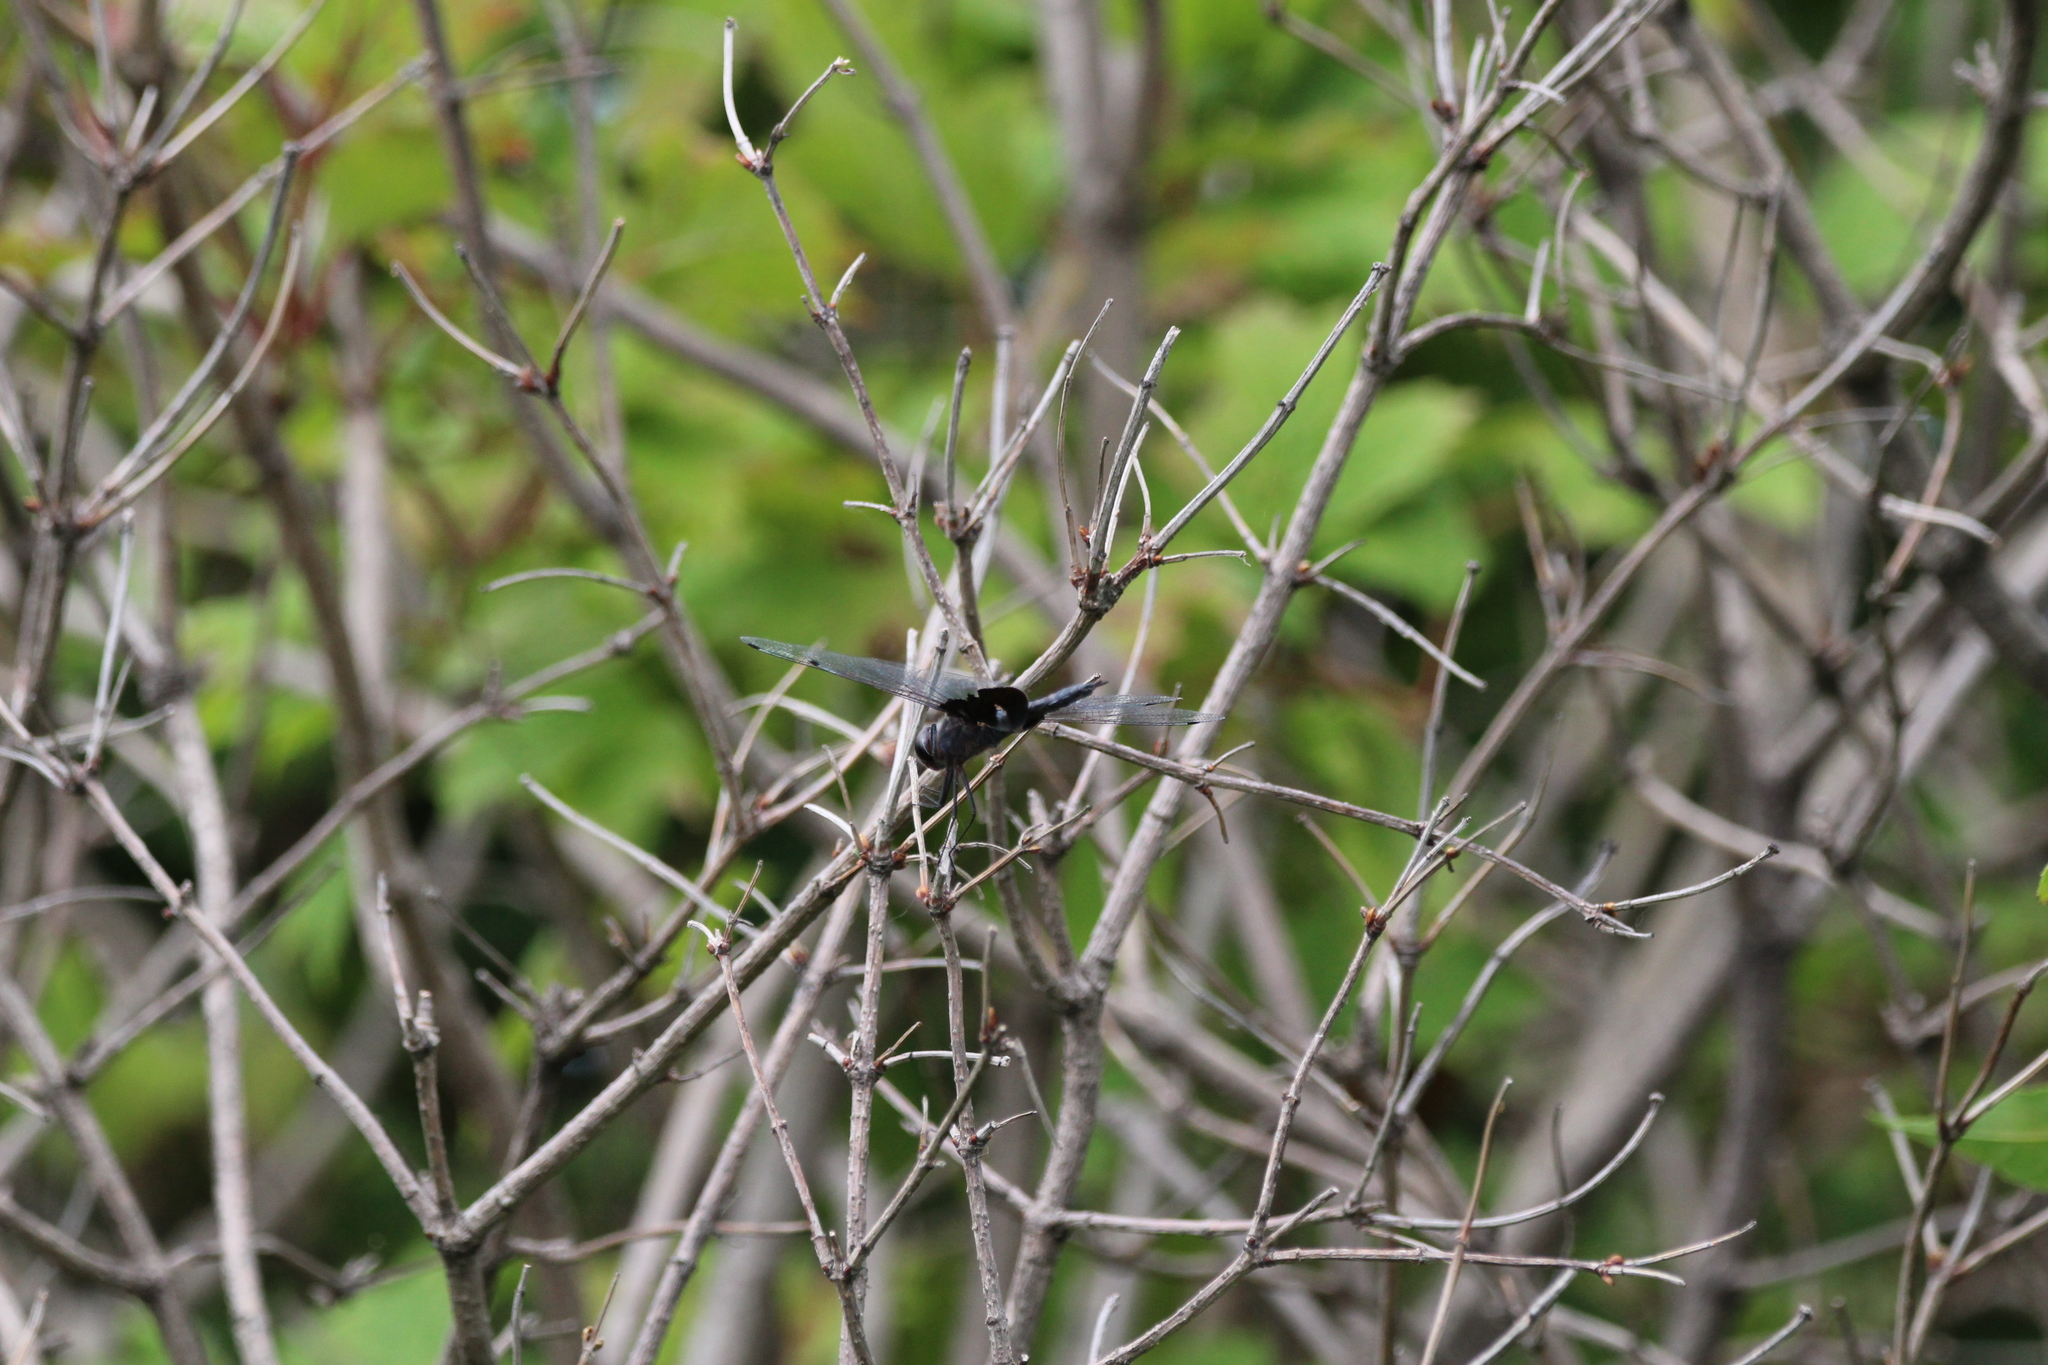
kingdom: Animalia
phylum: Arthropoda
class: Insecta
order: Odonata
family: Libellulidae
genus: Tramea
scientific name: Tramea lacerata
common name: Black saddlebags
